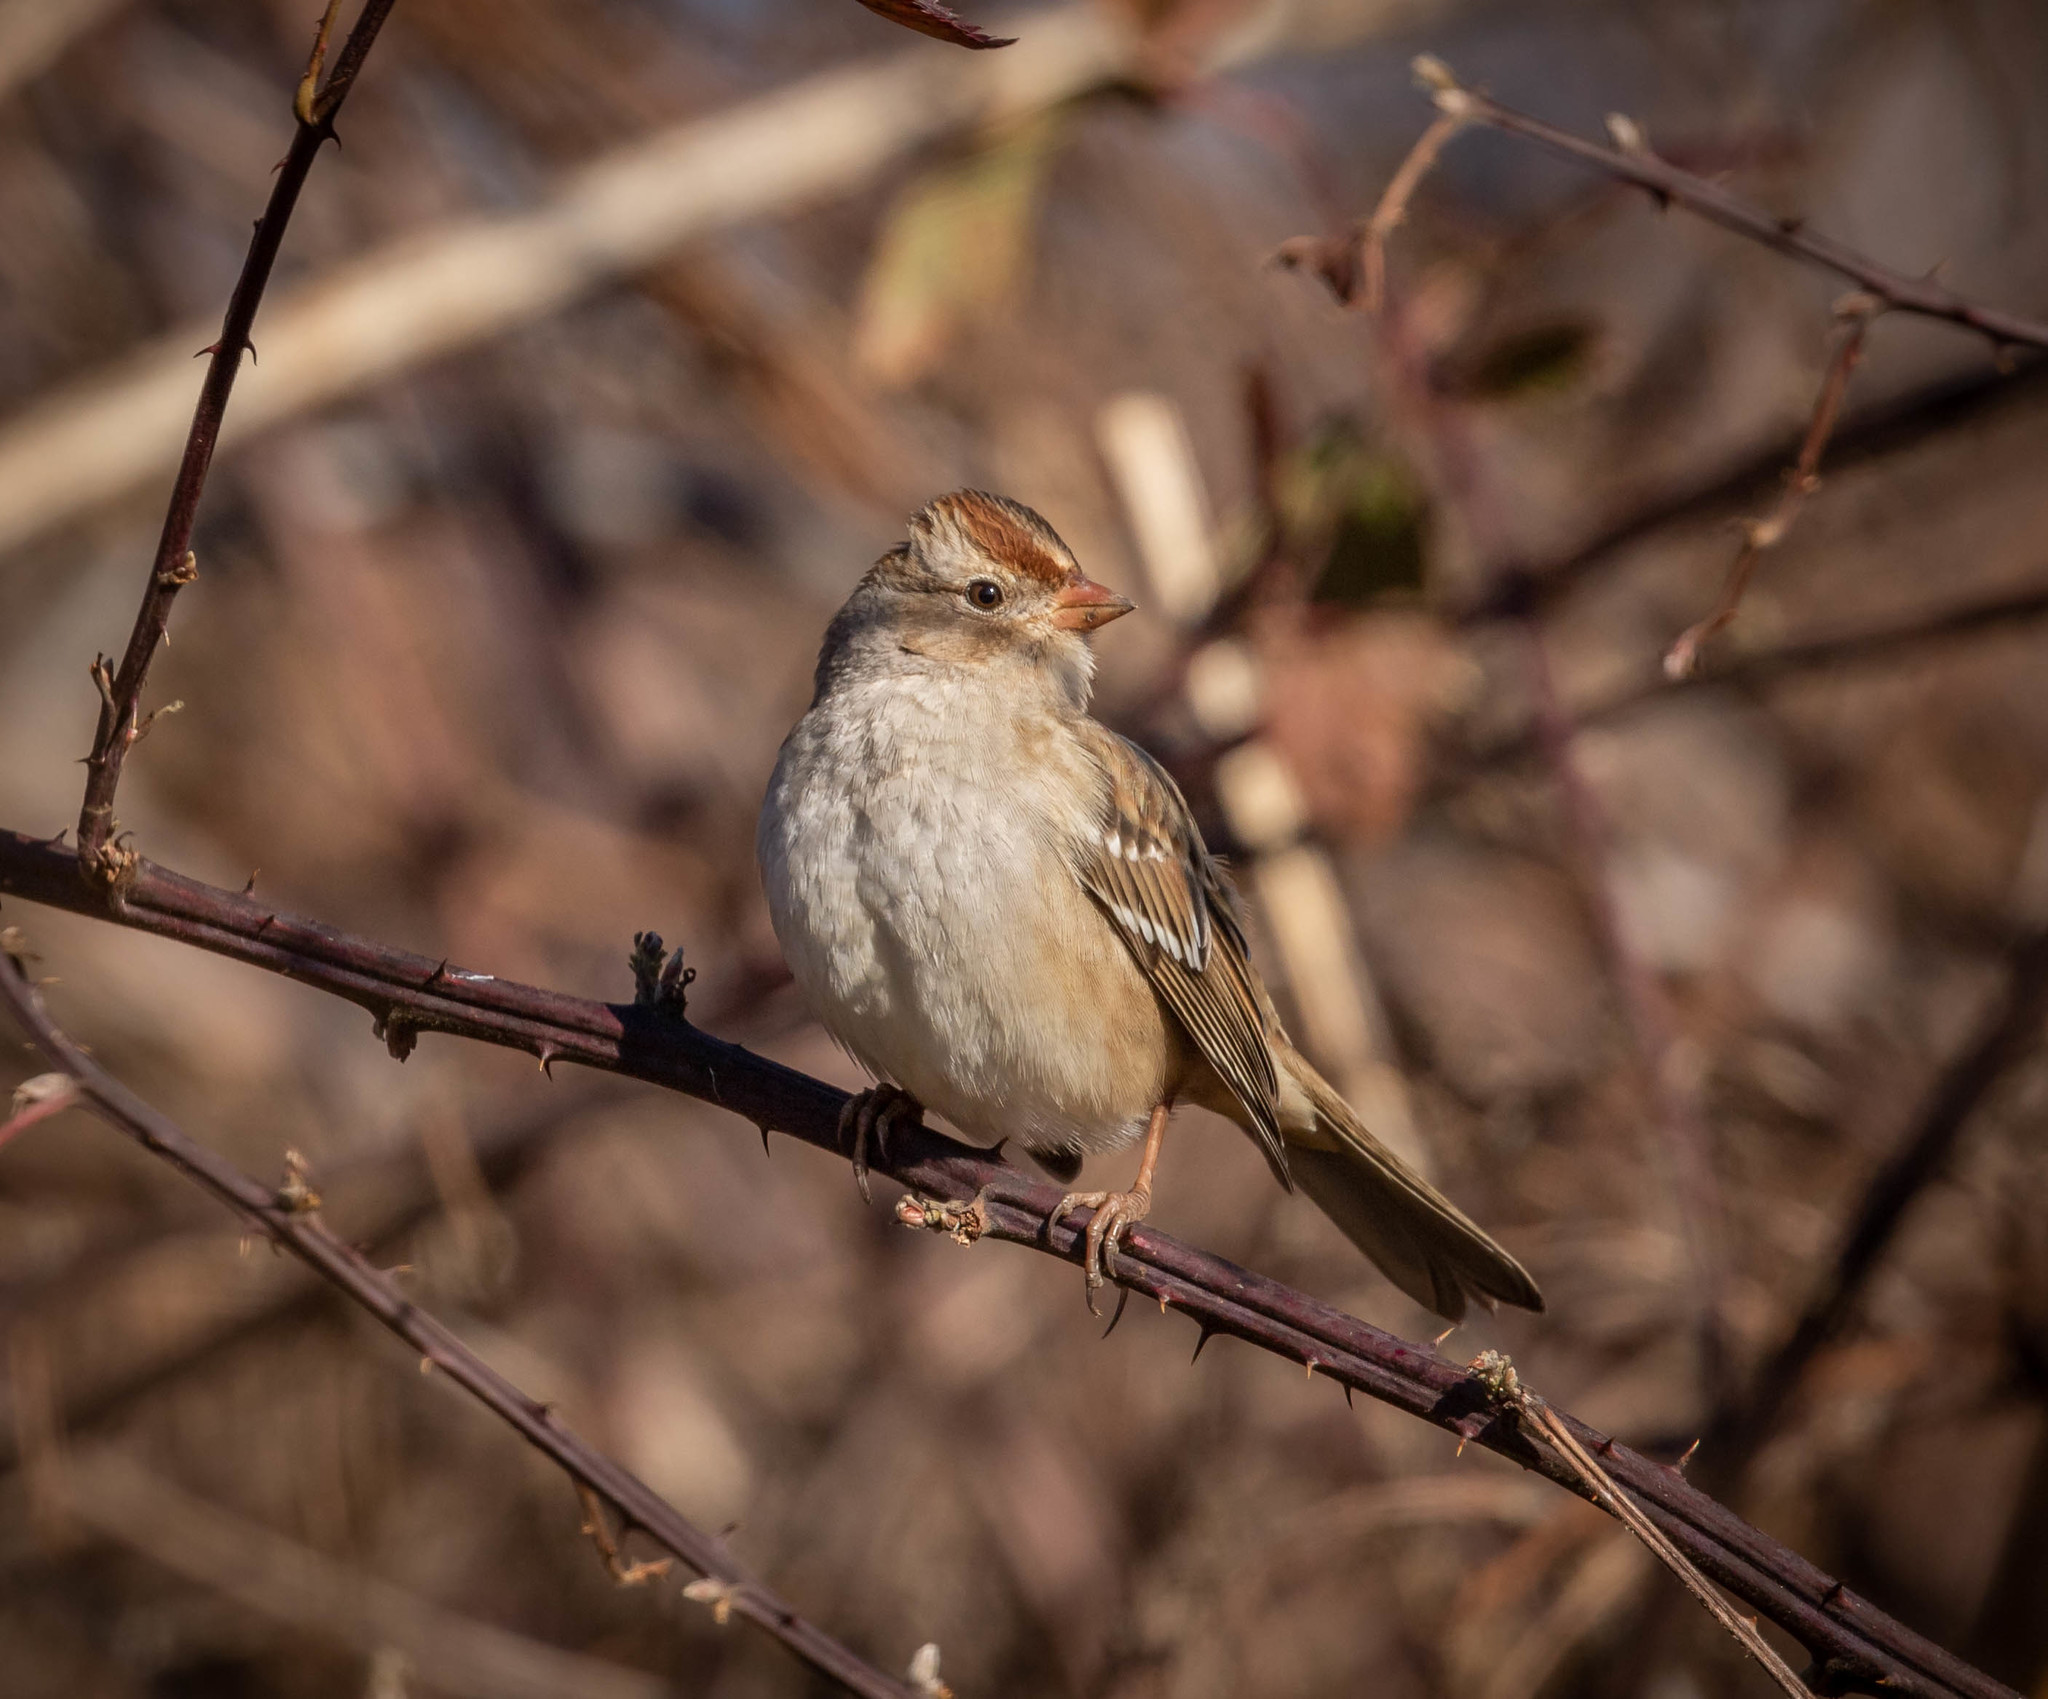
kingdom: Animalia
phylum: Chordata
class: Aves
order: Passeriformes
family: Passerellidae
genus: Zonotrichia
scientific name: Zonotrichia leucophrys
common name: White-crowned sparrow
